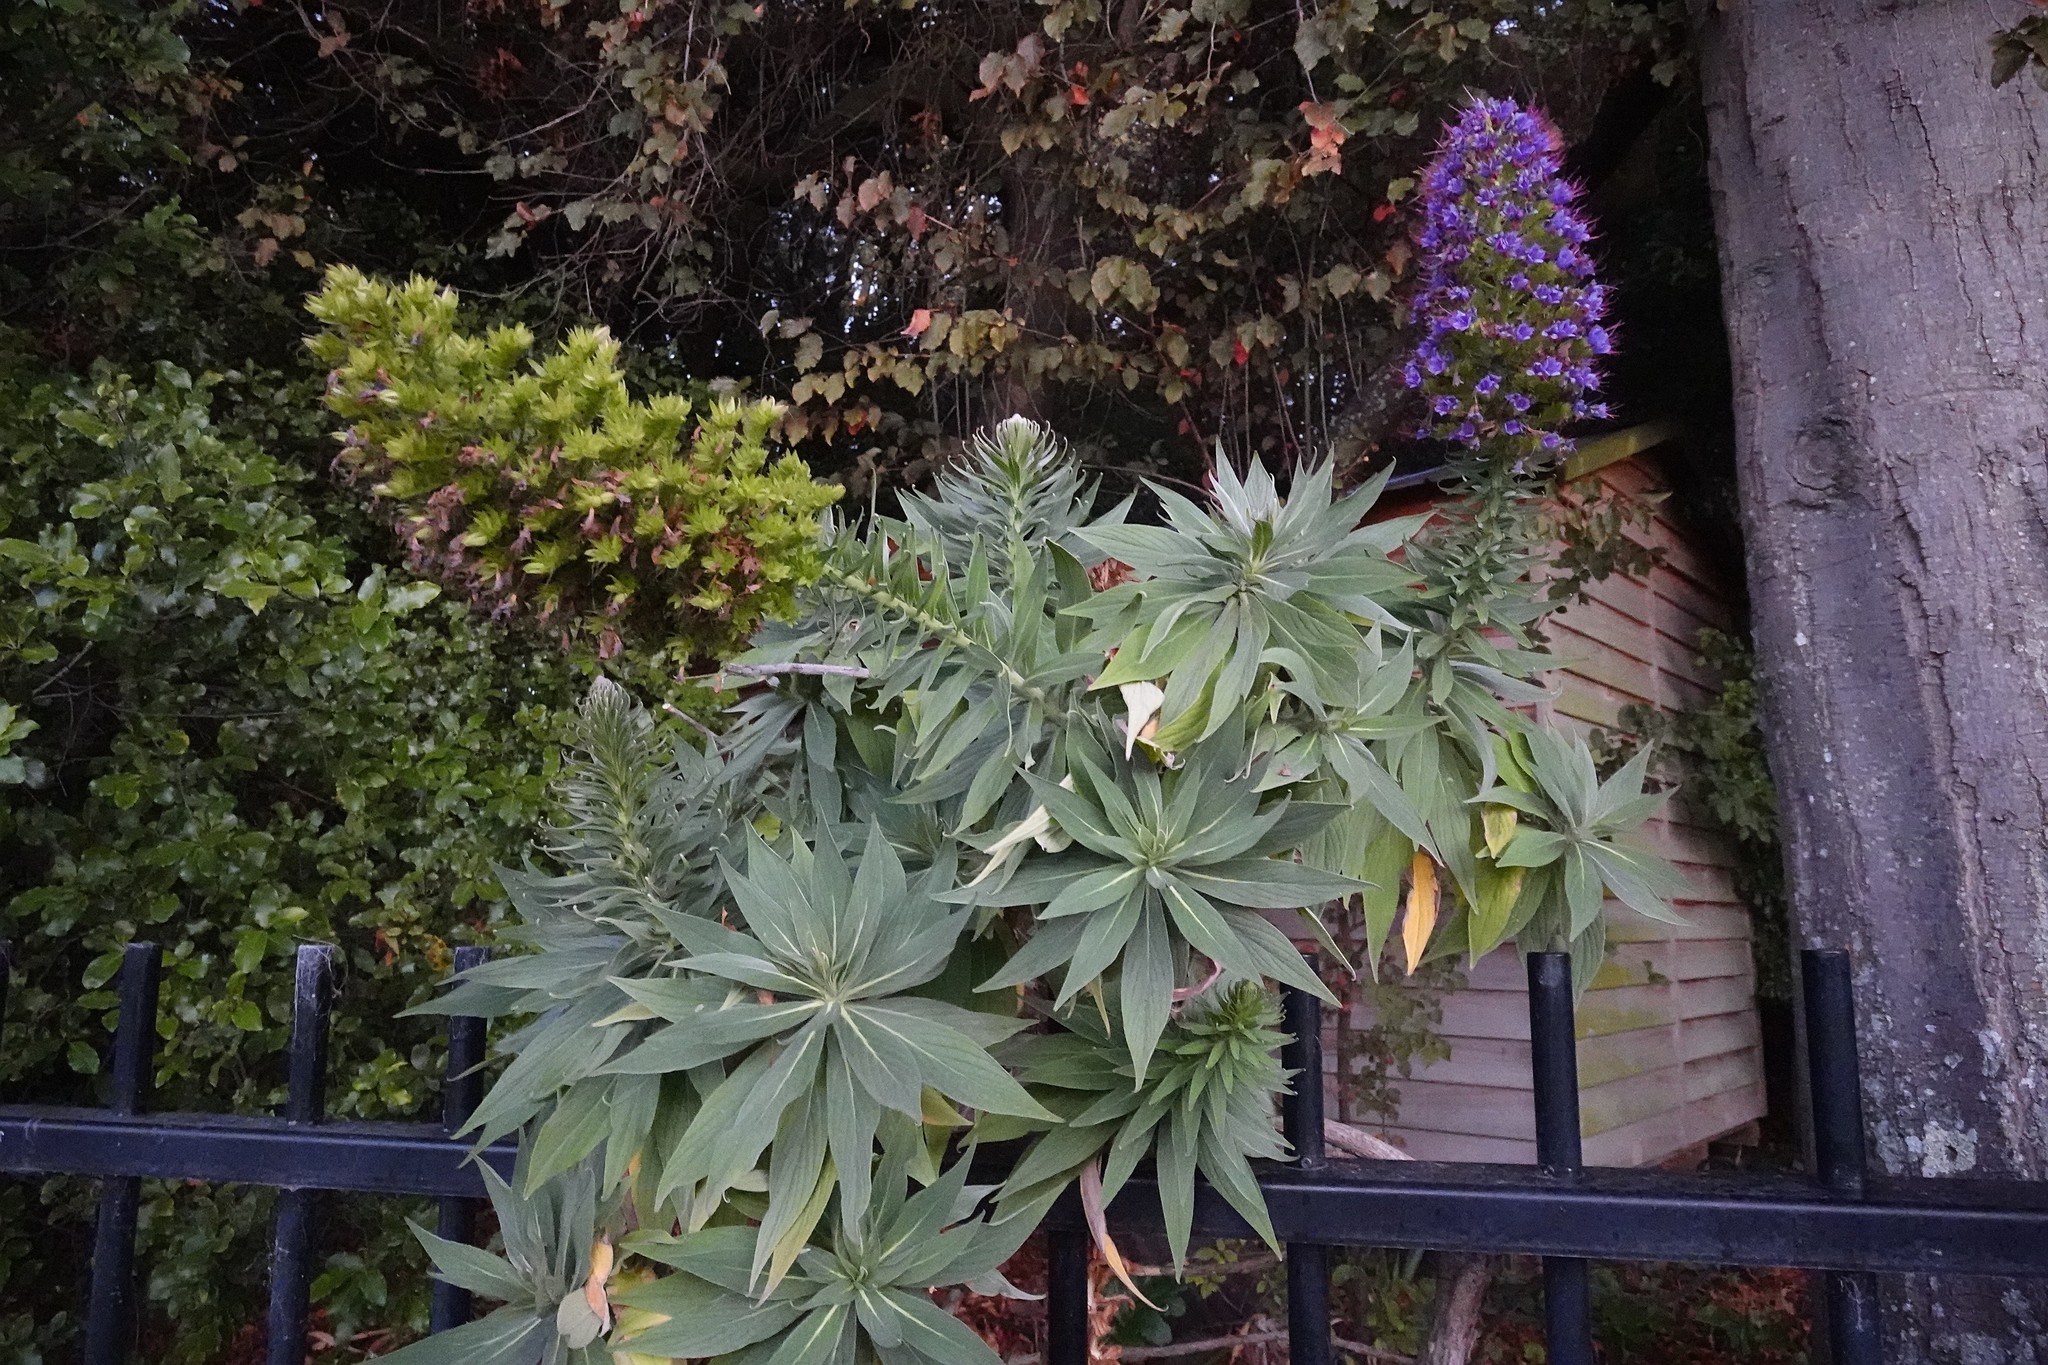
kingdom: Plantae
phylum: Tracheophyta
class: Magnoliopsida
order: Boraginales
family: Boraginaceae
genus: Echium
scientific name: Echium candicans
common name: Pride of madeira
